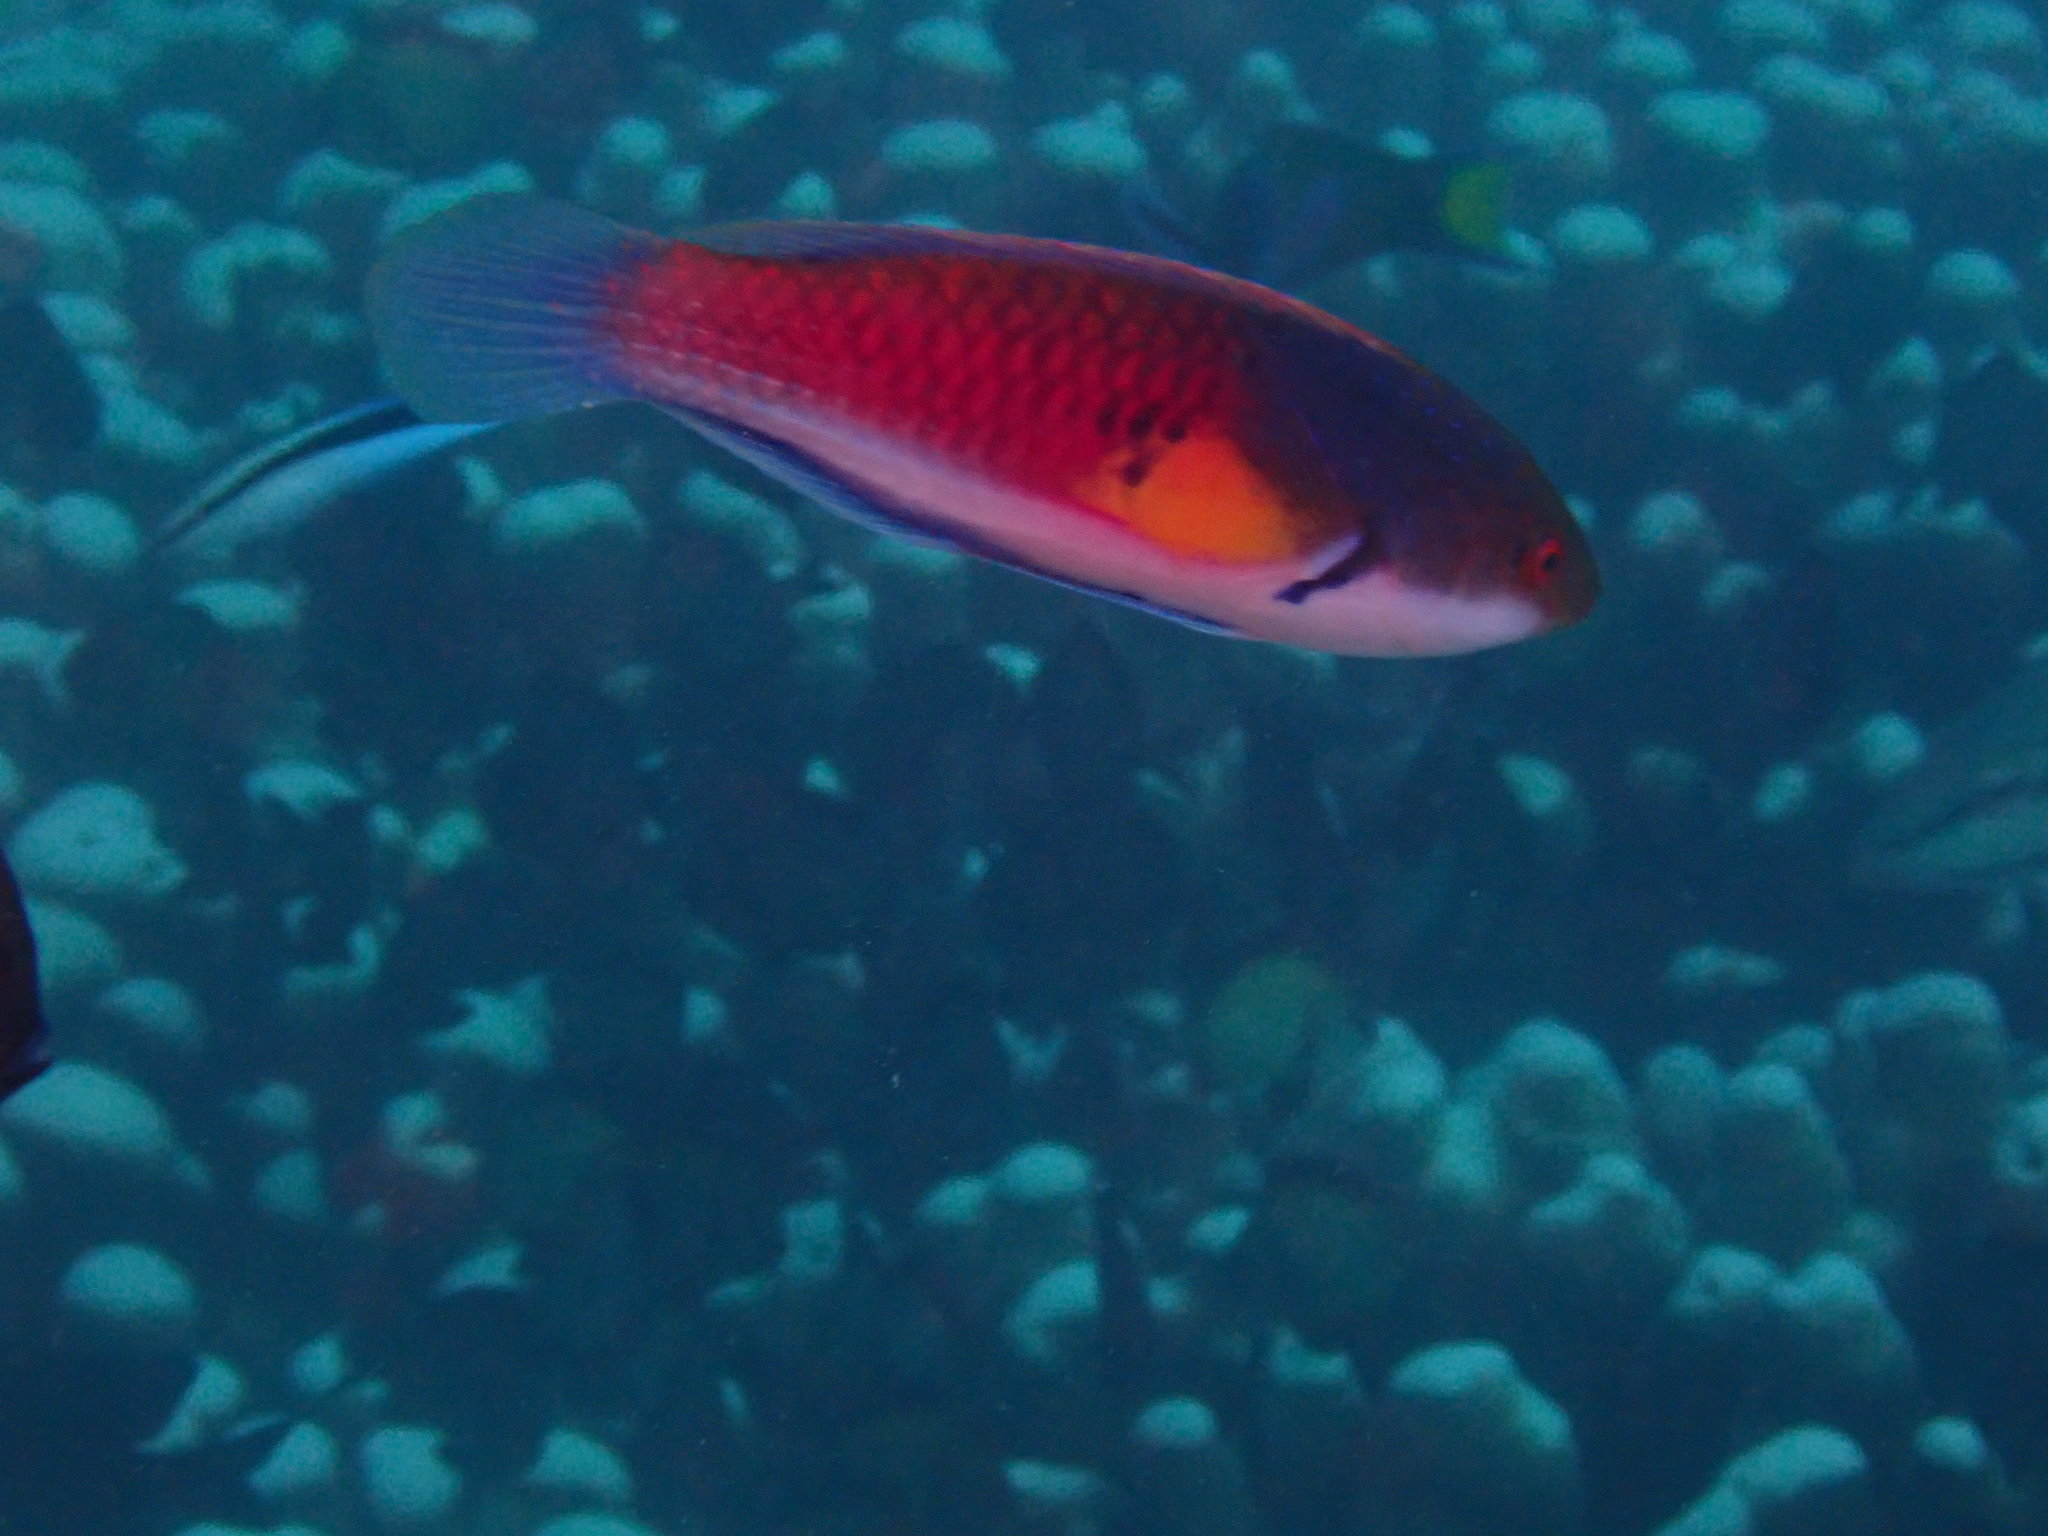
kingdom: Animalia
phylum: Chordata
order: Perciformes
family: Labridae
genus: Cirrhilabrus
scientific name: Cirrhilabrus cyanopleura
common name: Coralline wrasse
